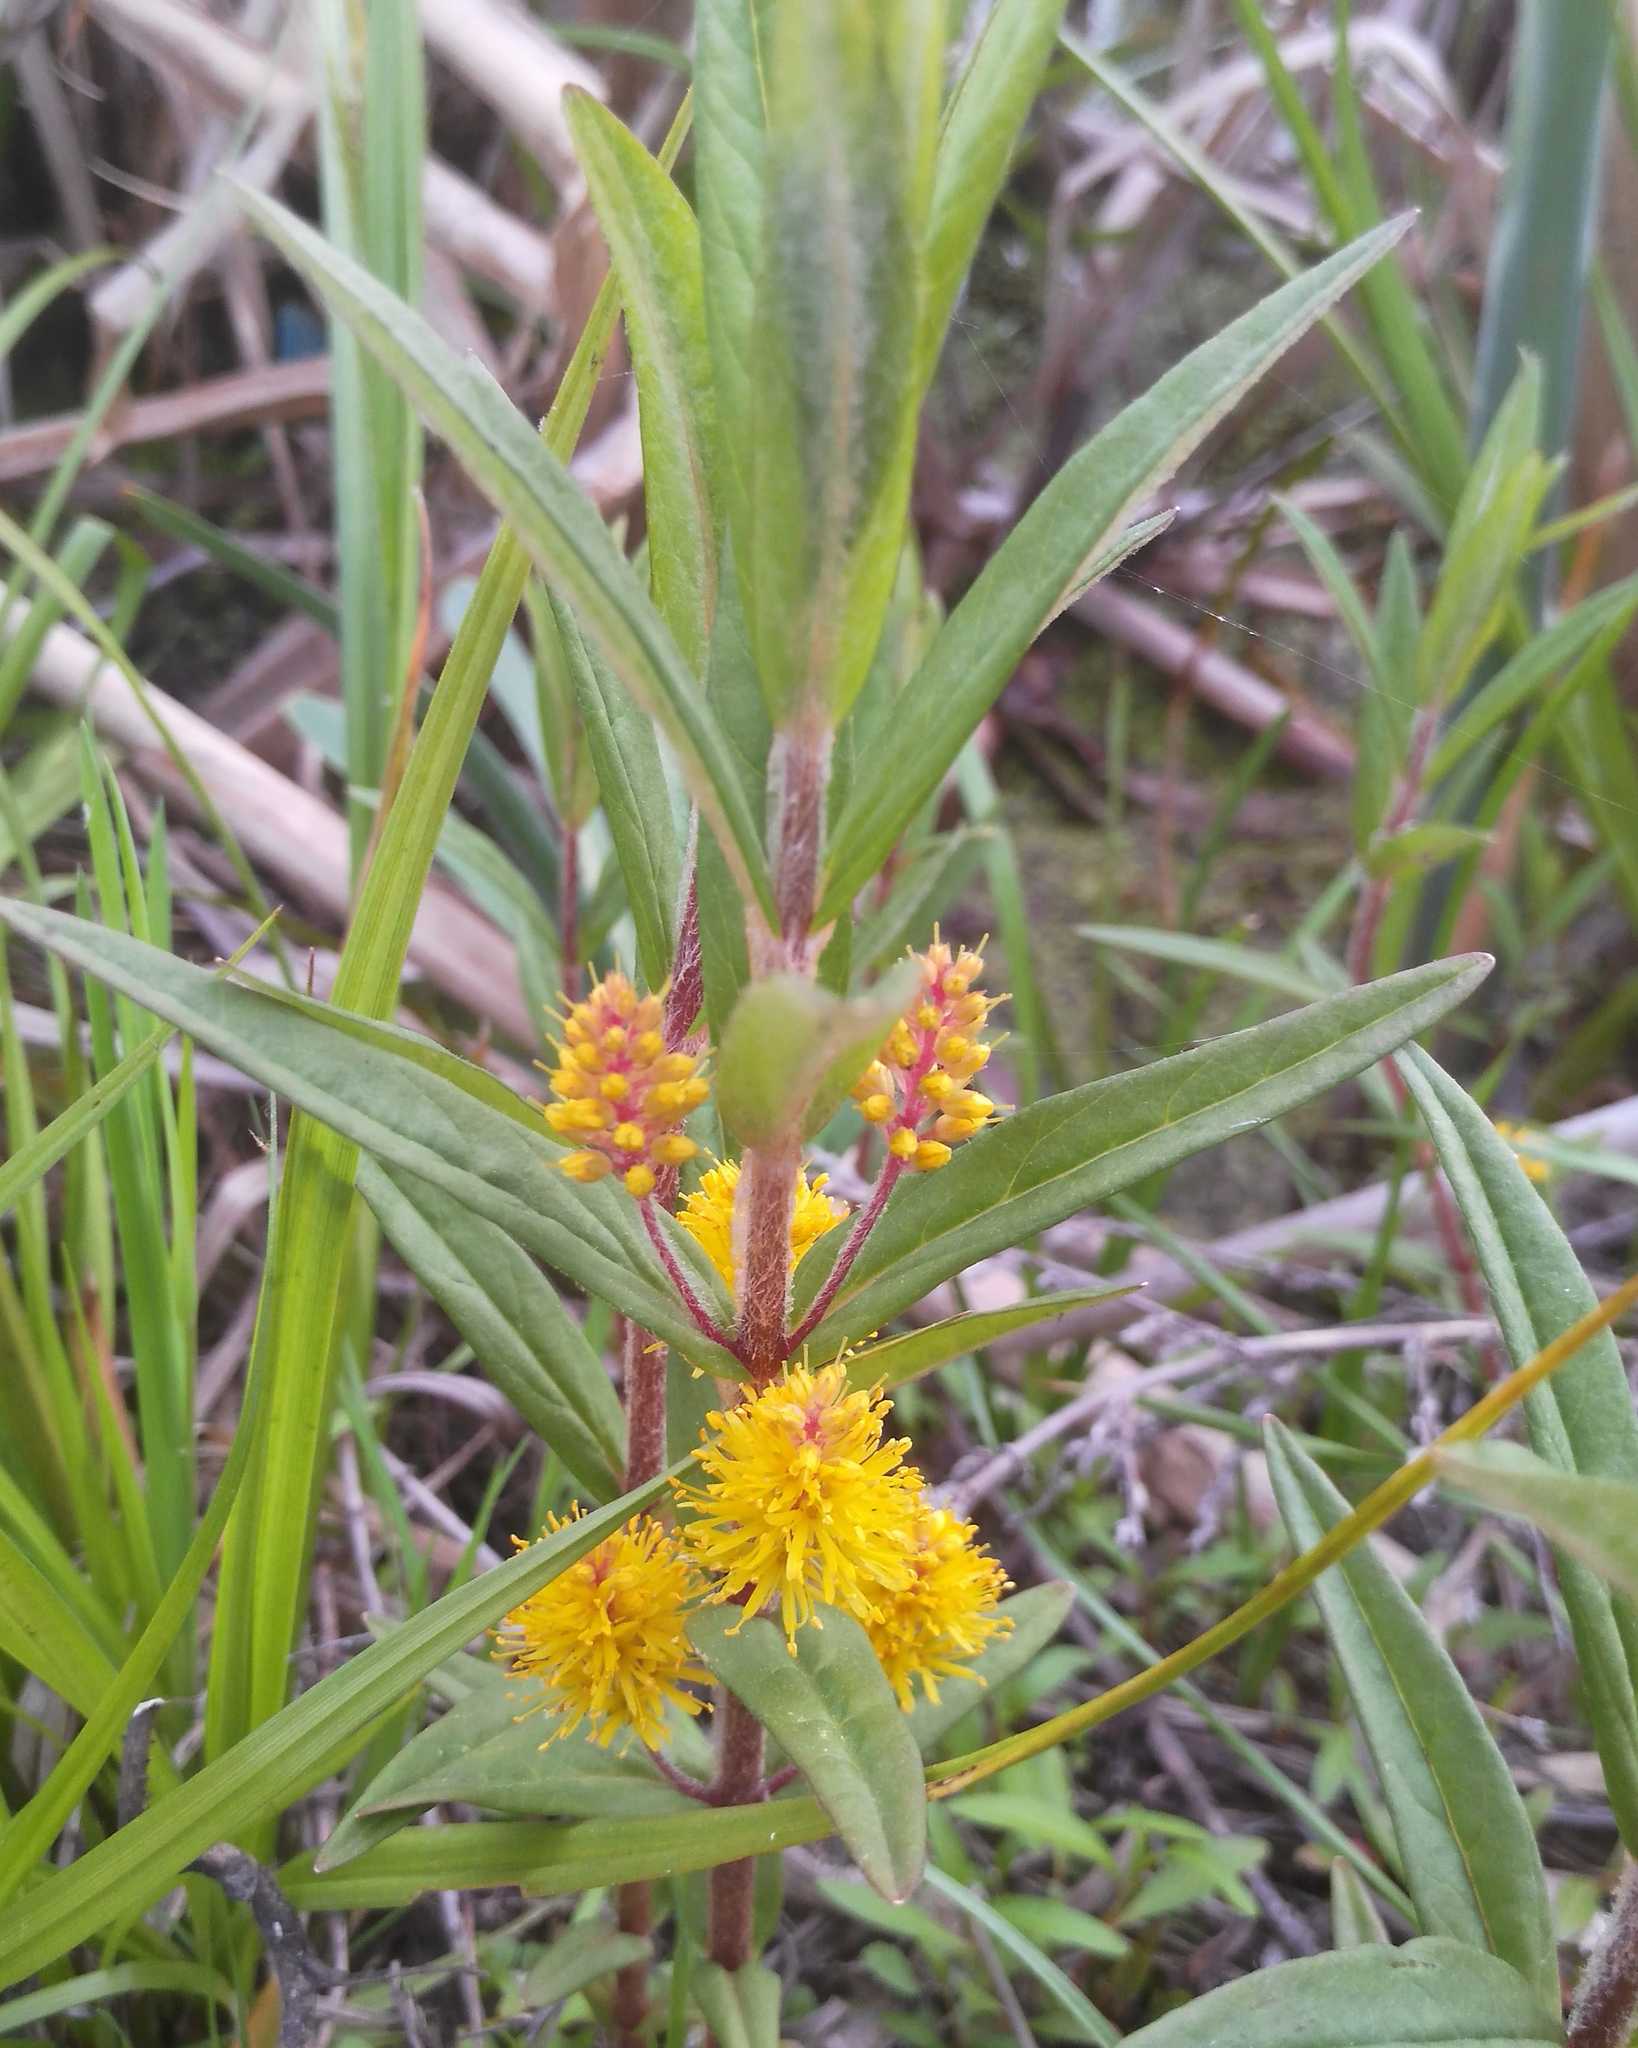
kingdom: Plantae
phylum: Tracheophyta
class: Magnoliopsida
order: Ericales
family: Primulaceae
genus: Lysimachia
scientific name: Lysimachia thyrsiflora
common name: Tufted loosestrife
